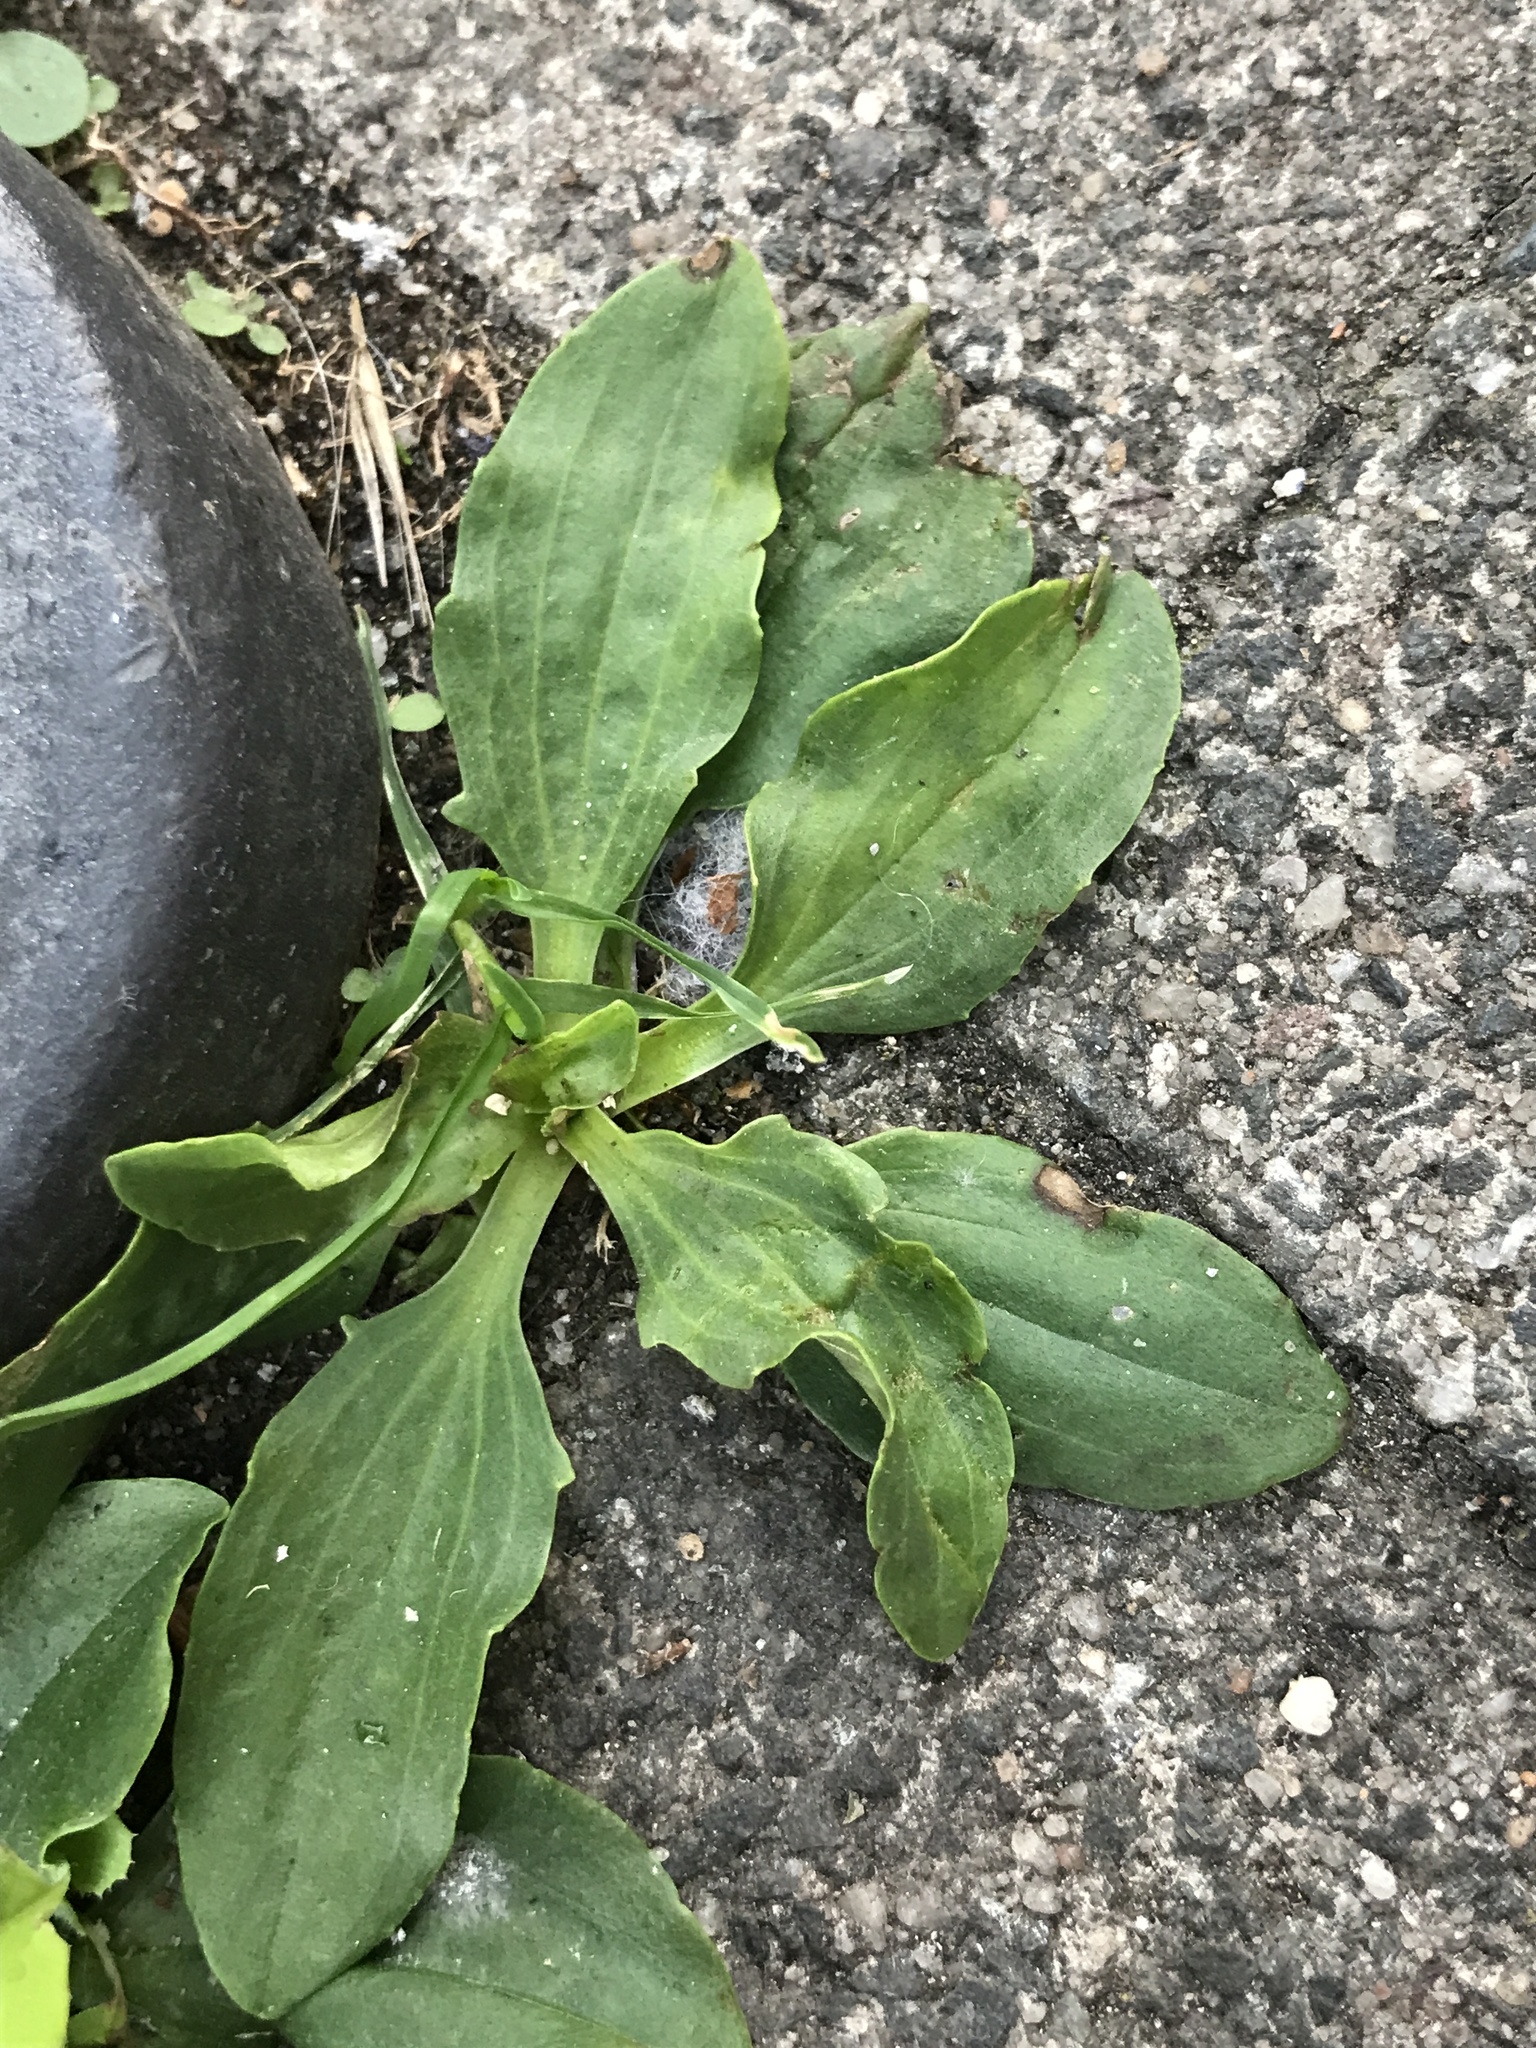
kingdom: Plantae
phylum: Tracheophyta
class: Magnoliopsida
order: Lamiales
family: Plantaginaceae
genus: Plantago
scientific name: Plantago major
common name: Common plantain
